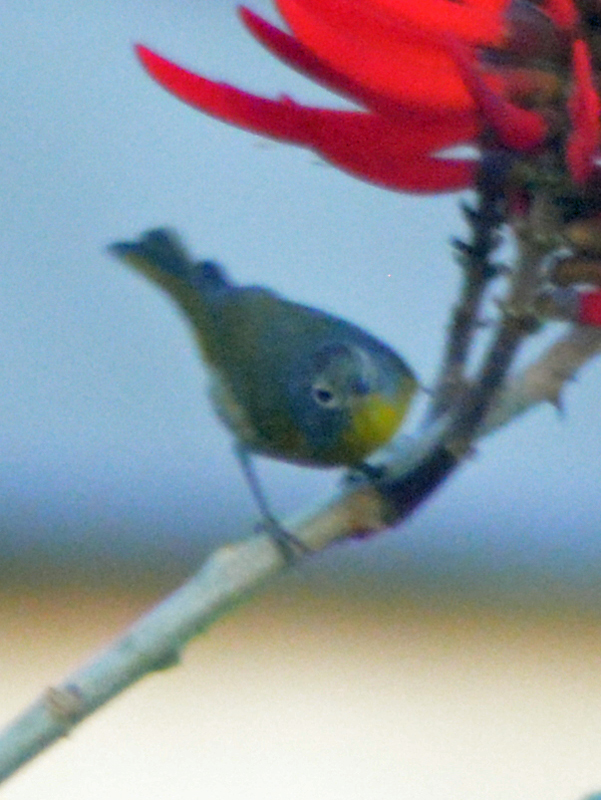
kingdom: Animalia
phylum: Chordata
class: Aves
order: Passeriformes
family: Parulidae
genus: Setophaga
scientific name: Setophaga americana
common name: Northern parula
